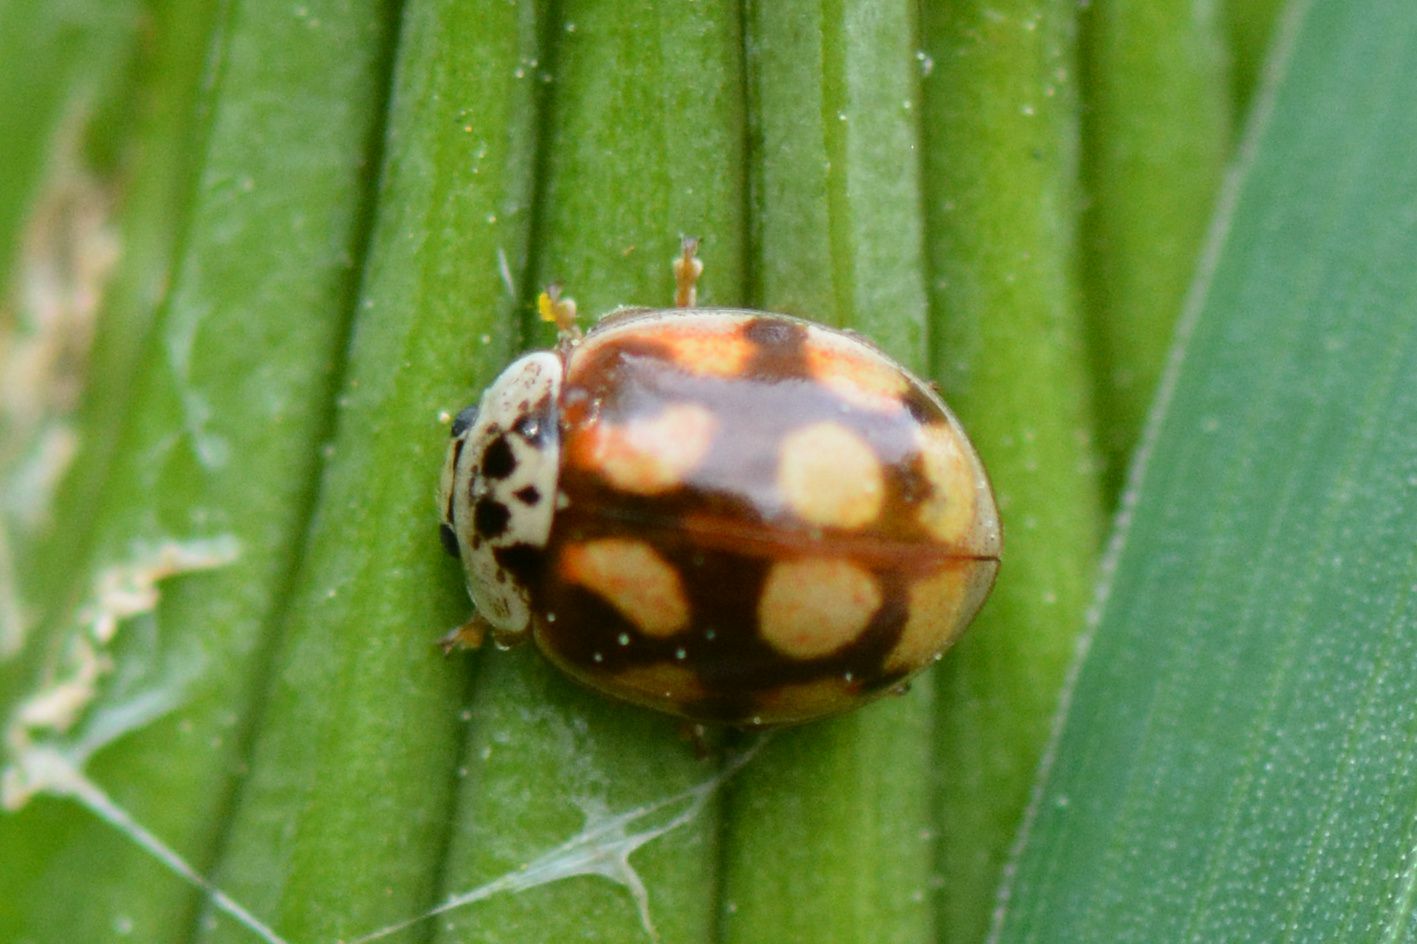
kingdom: Animalia
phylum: Arthropoda
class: Insecta
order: Coleoptera
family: Coccinellidae
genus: Adalia
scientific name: Adalia decempunctata
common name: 10-spot ladybird
